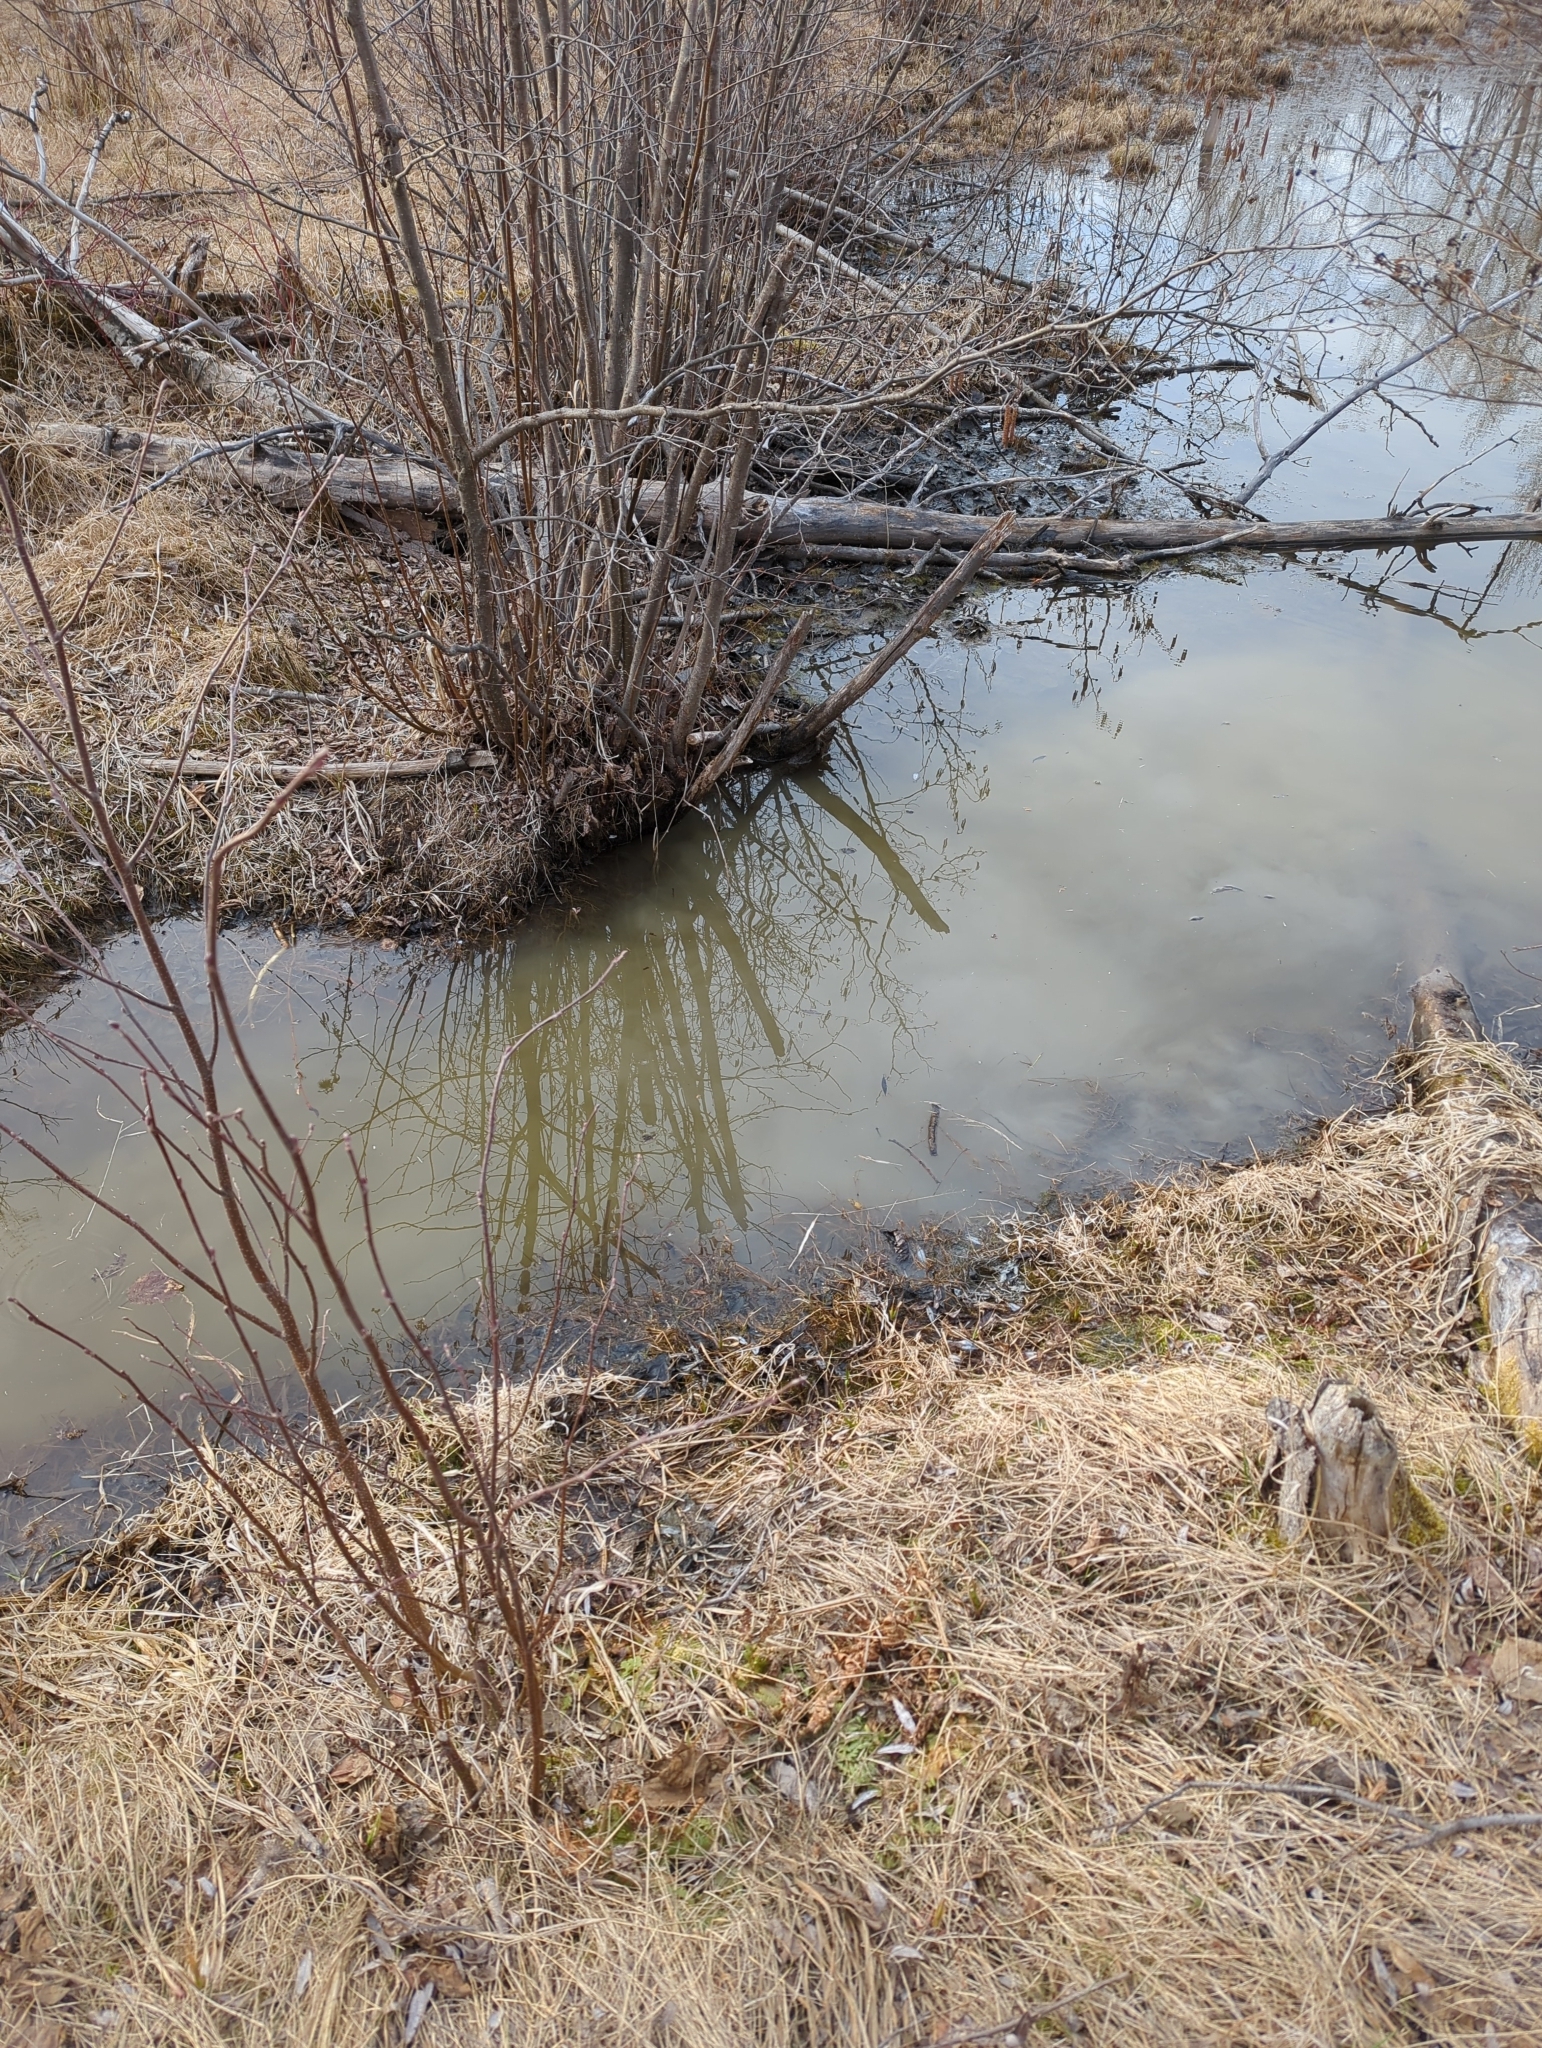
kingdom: Animalia
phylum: Chordata
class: Testudines
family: Emydidae
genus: Chrysemys
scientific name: Chrysemys picta
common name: Painted turtle
